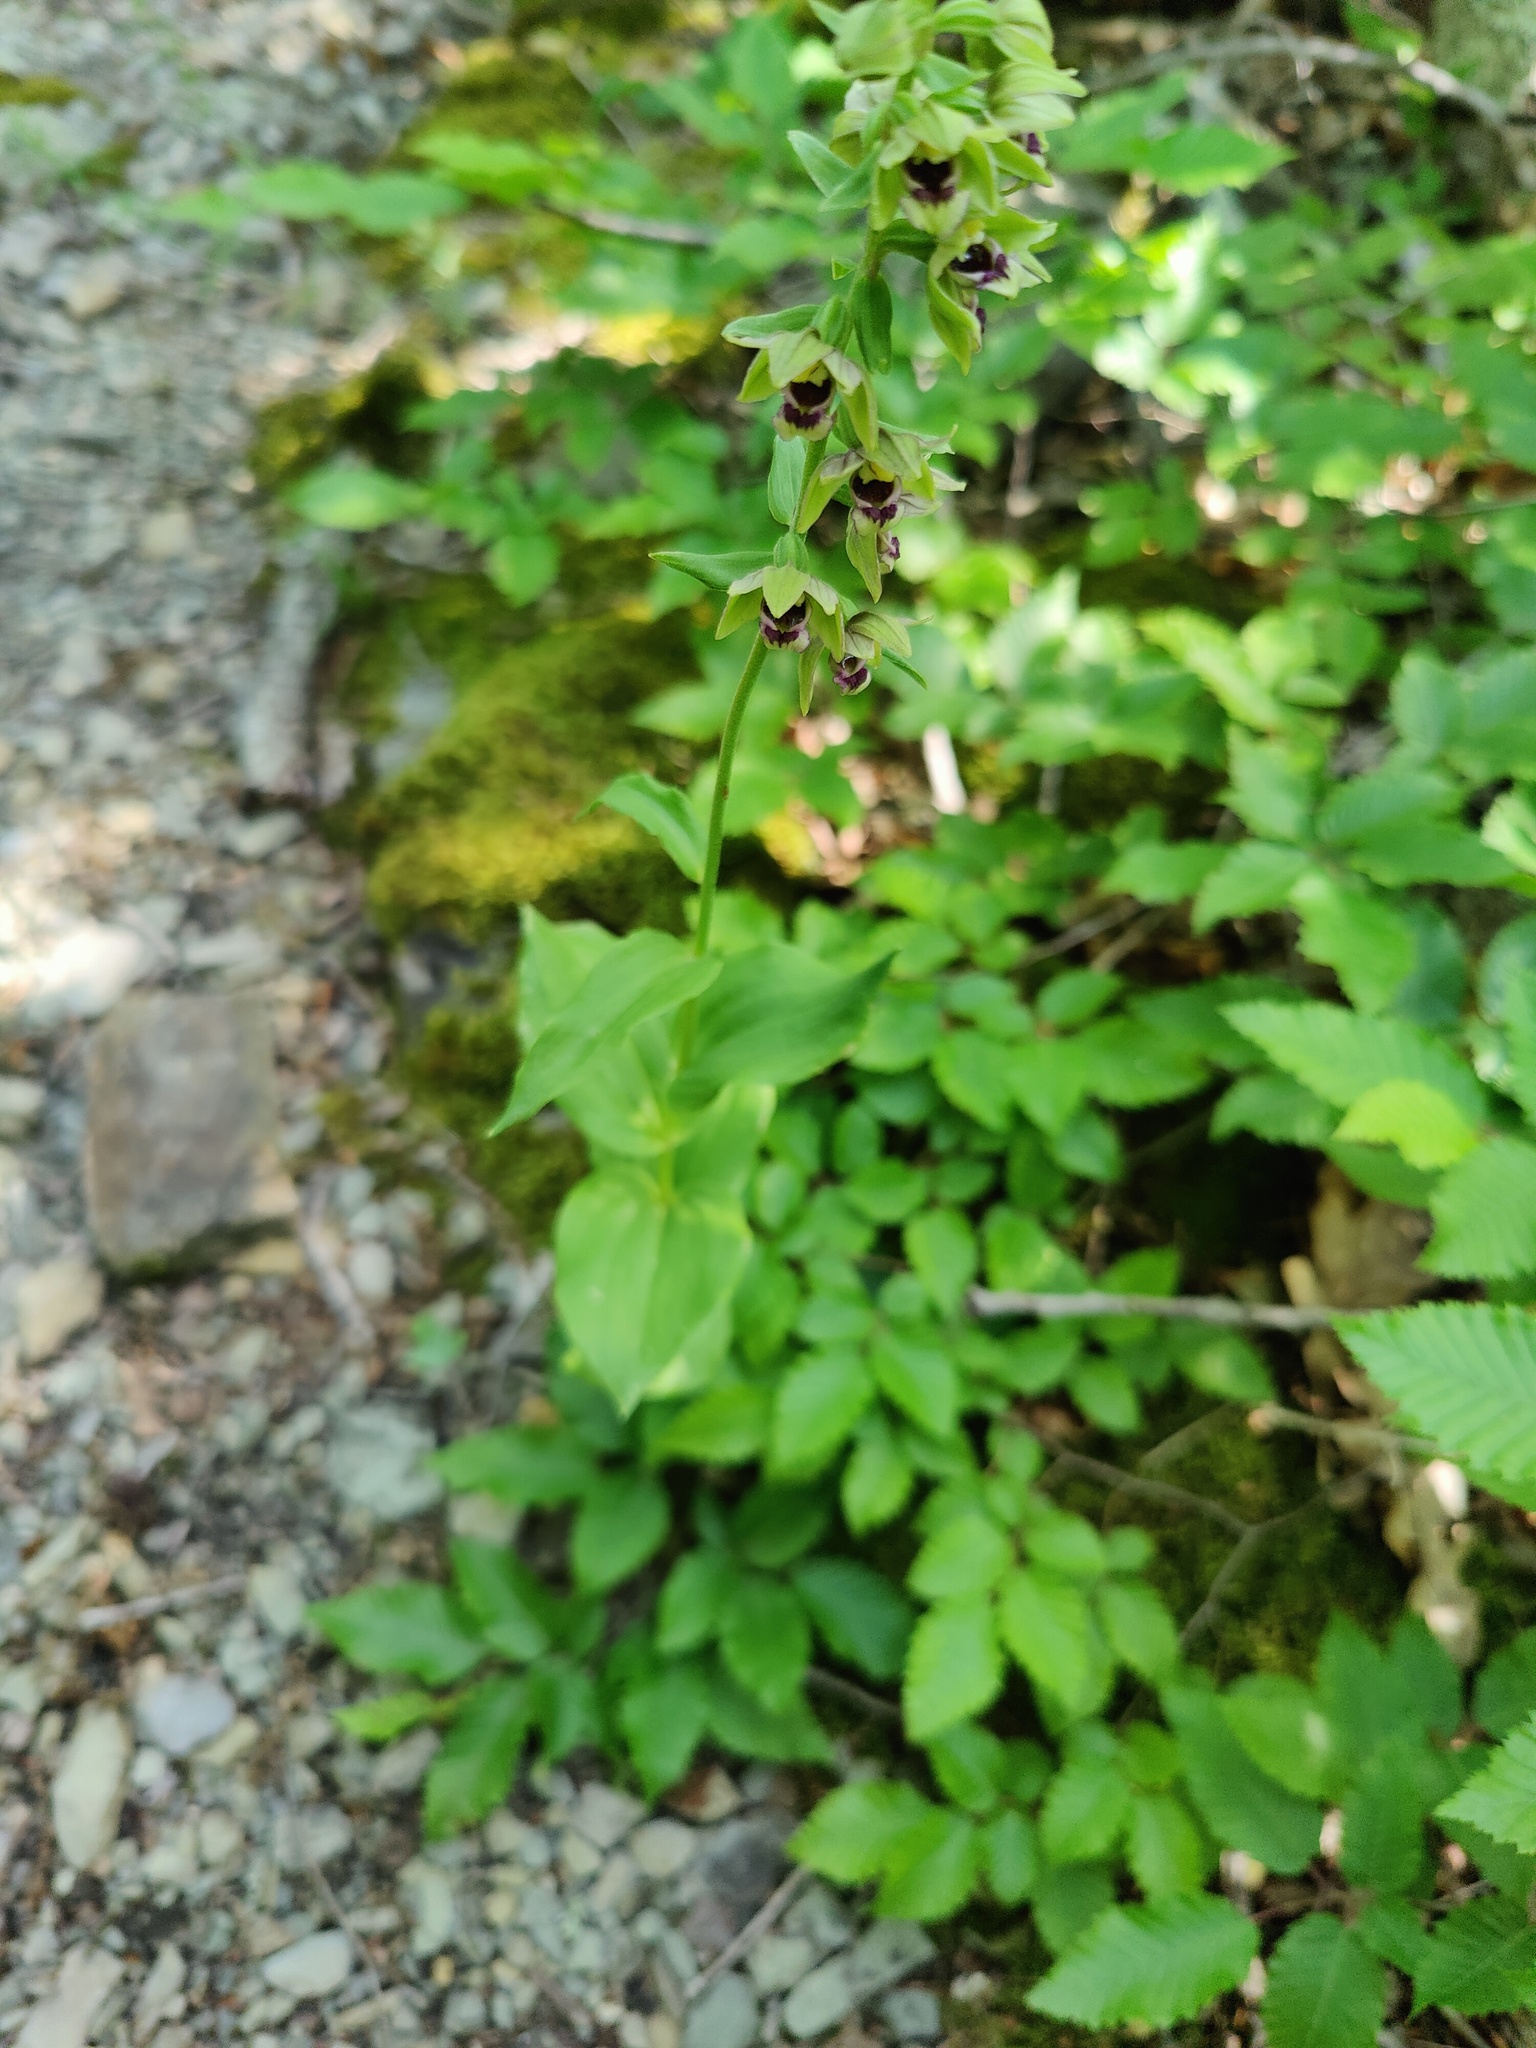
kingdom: Plantae
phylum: Tracheophyta
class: Liliopsida
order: Asparagales
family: Orchidaceae
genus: Epipactis
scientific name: Epipactis helleborine
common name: Broad-leaved helleborine
